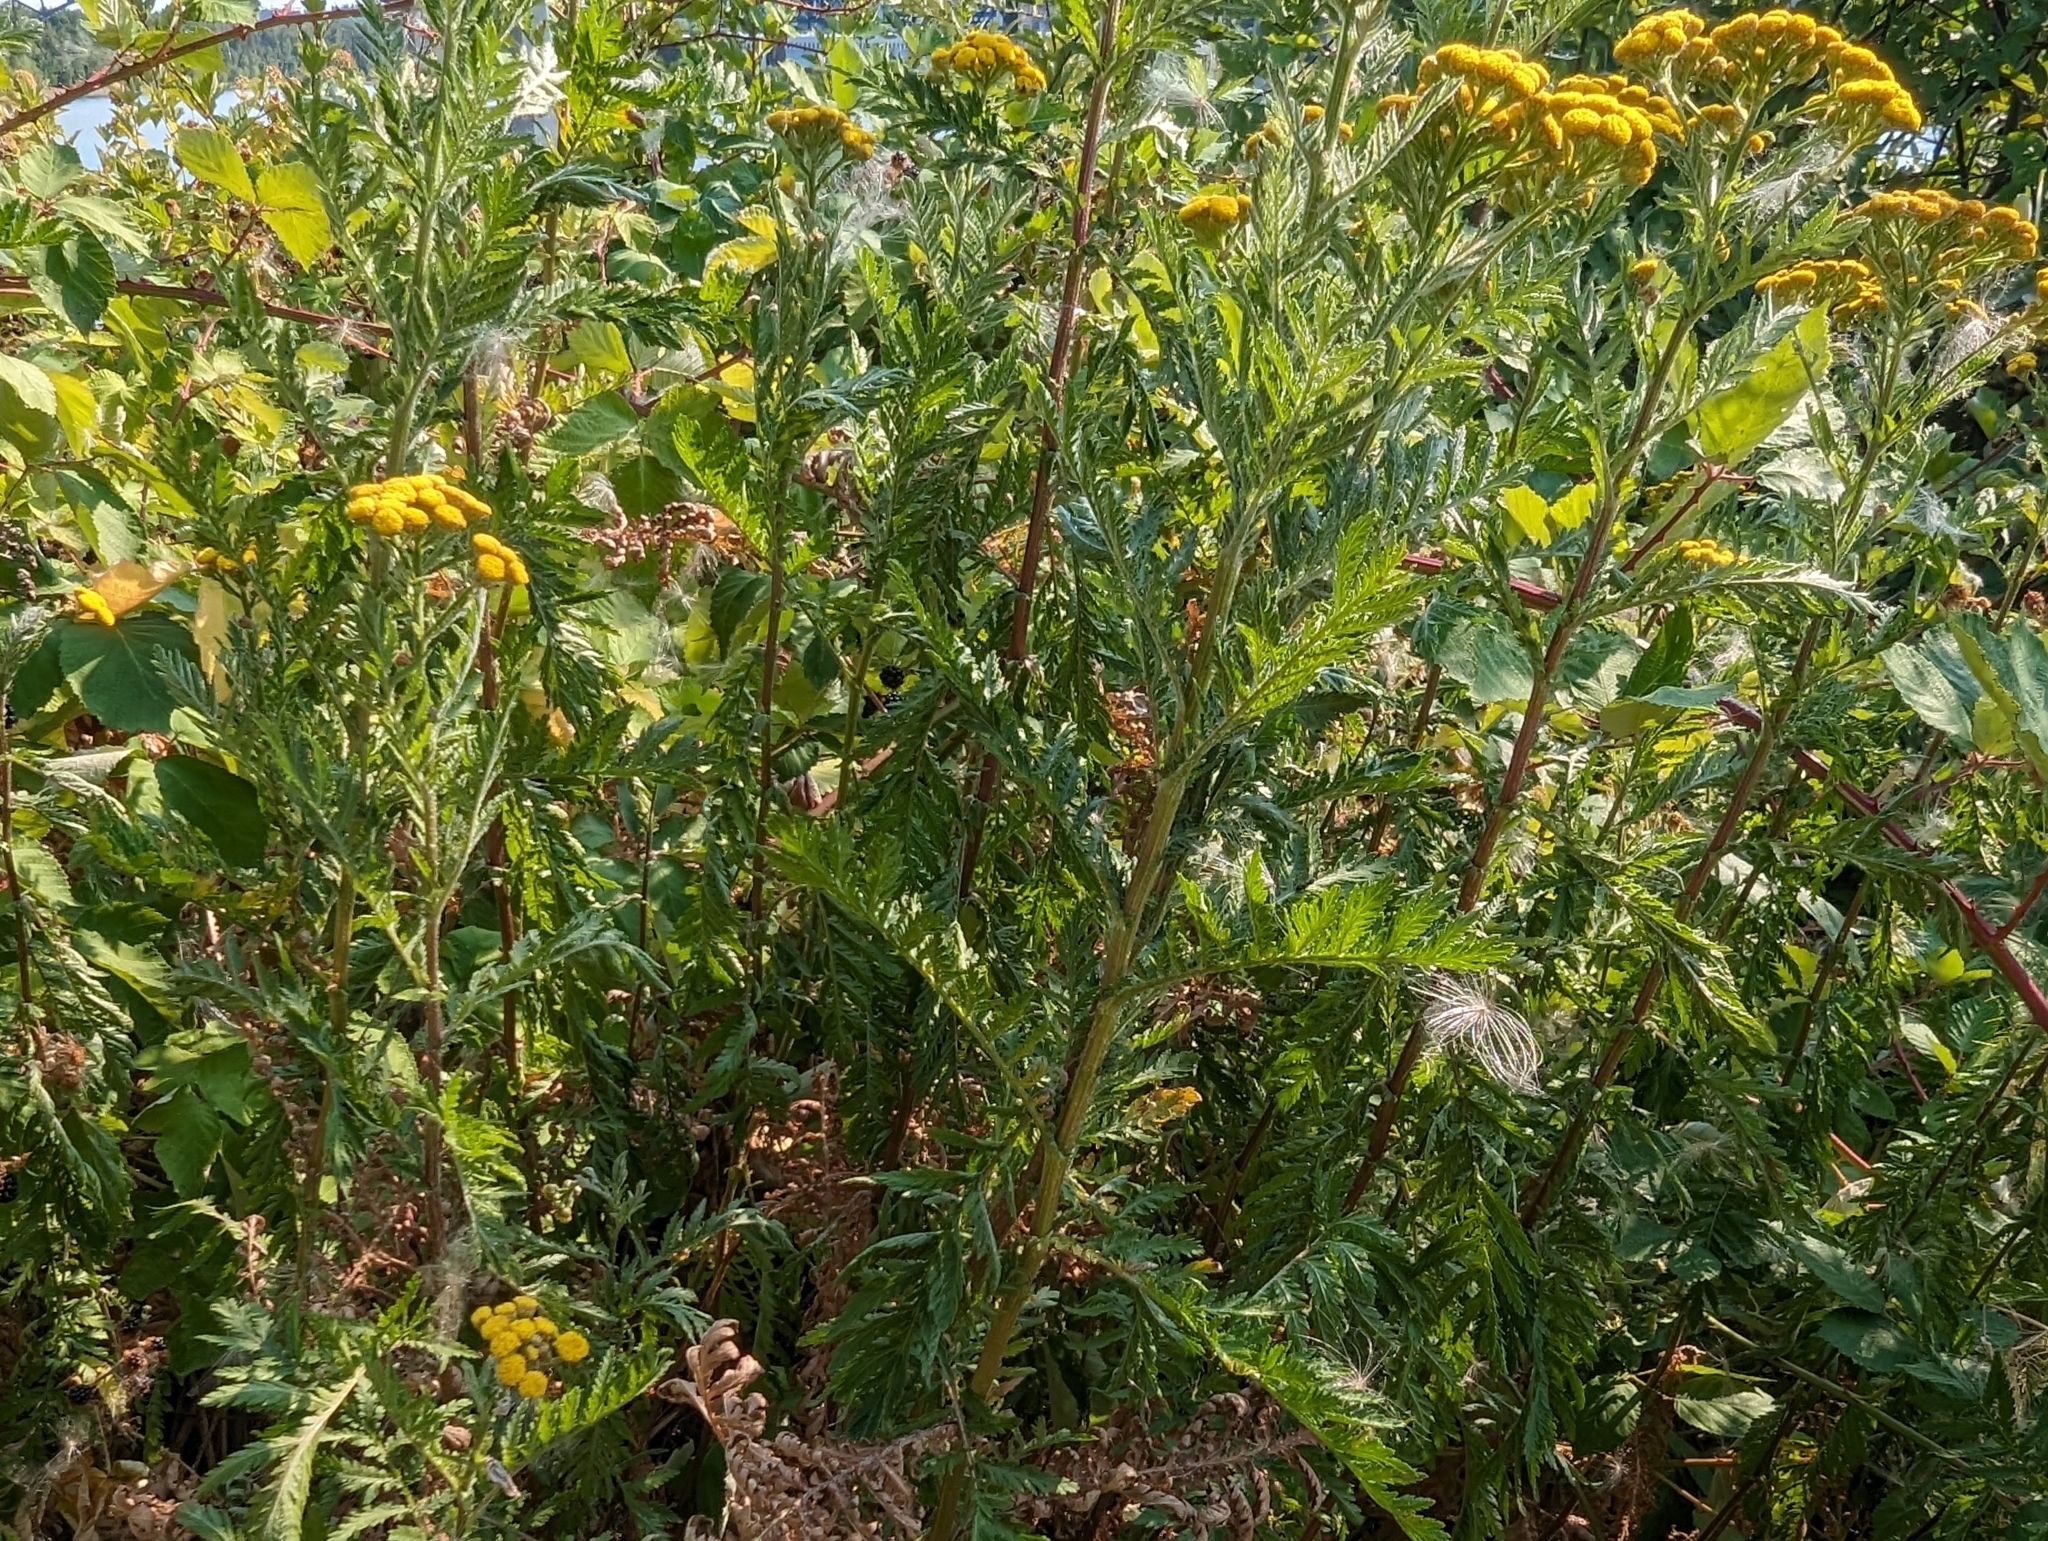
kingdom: Plantae
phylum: Tracheophyta
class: Magnoliopsida
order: Asterales
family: Asteraceae
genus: Tanacetum
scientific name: Tanacetum vulgare
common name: Common tansy
